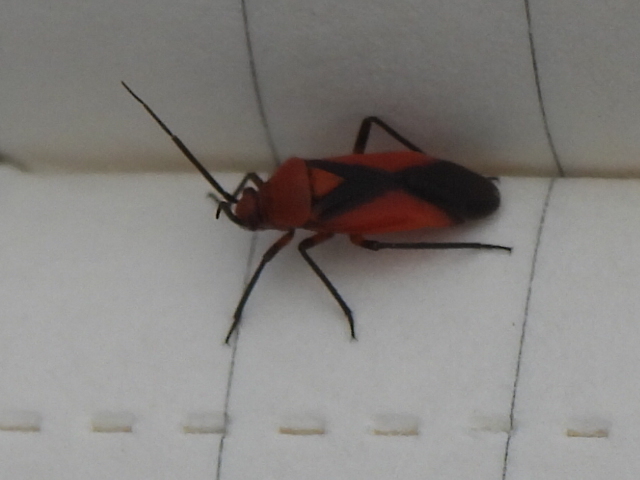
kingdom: Animalia
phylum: Arthropoda
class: Insecta
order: Hemiptera
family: Miridae
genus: Oncerometopus
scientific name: Oncerometopus nigriclavus
